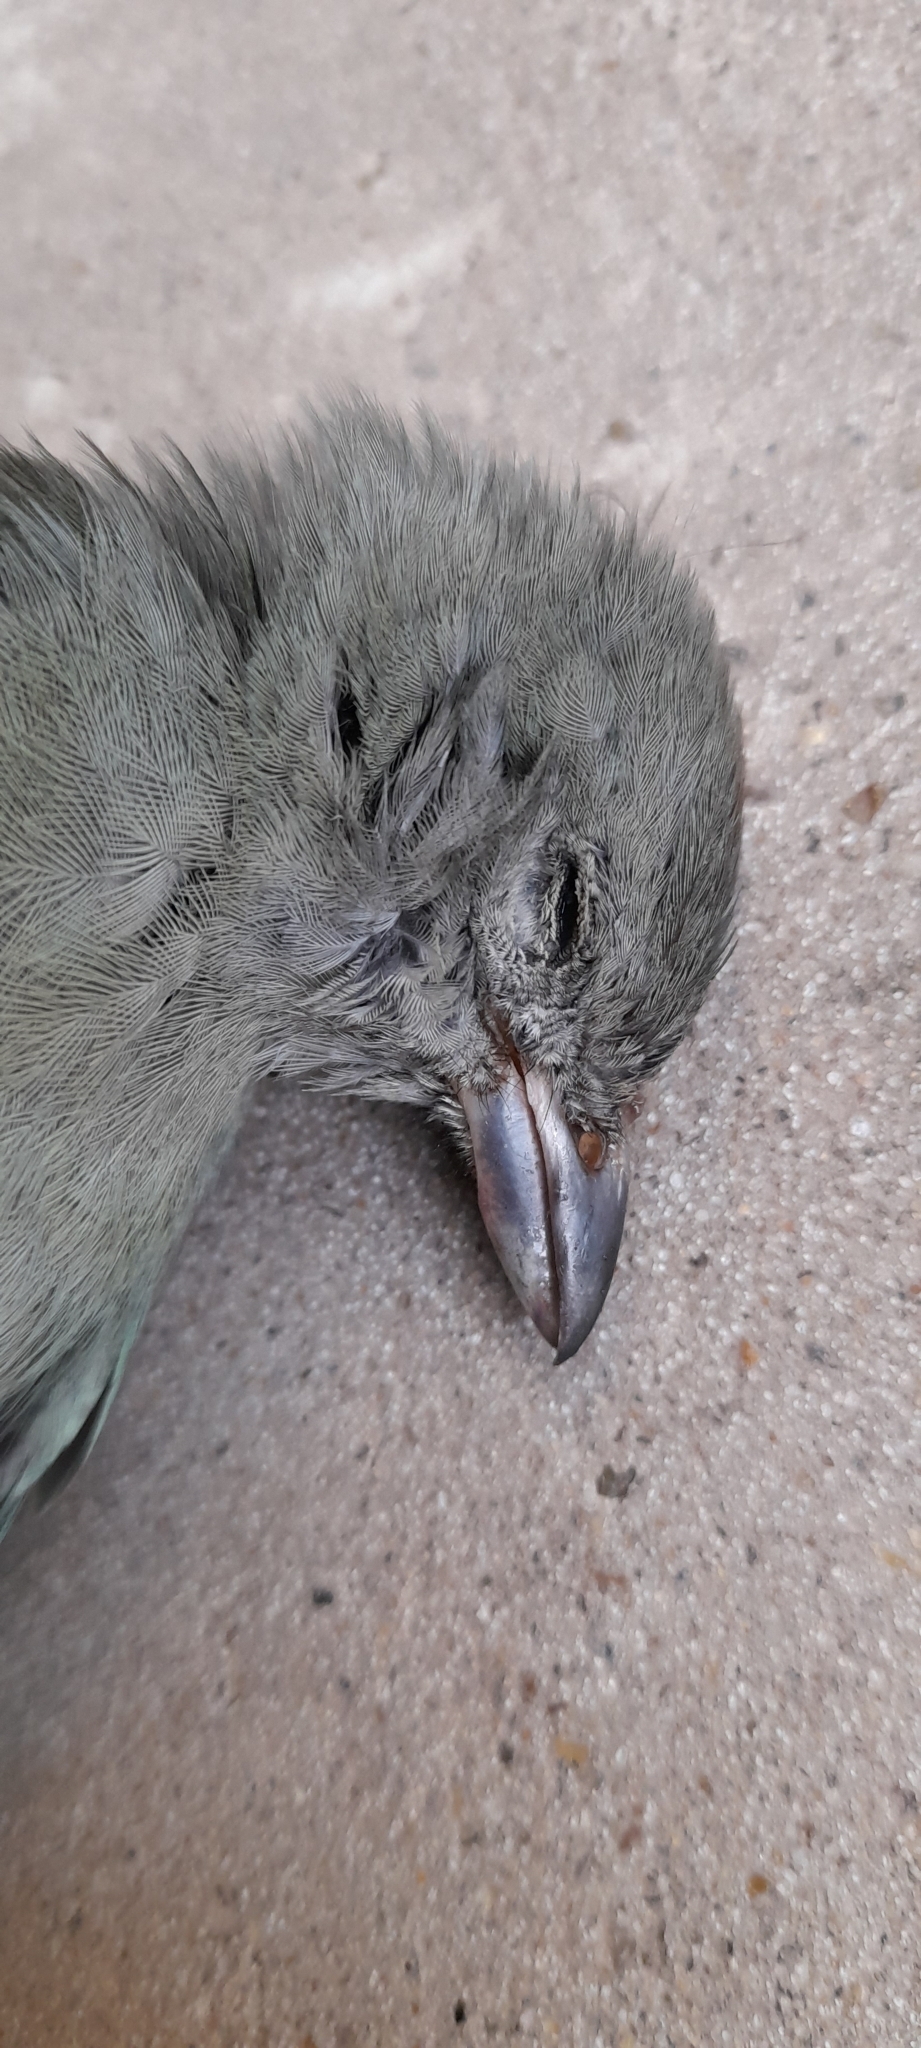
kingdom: Animalia
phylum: Chordata
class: Aves
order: Passeriformes
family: Thraupidae
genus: Thraupis
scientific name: Thraupis sayaca
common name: Sayaca tanager
